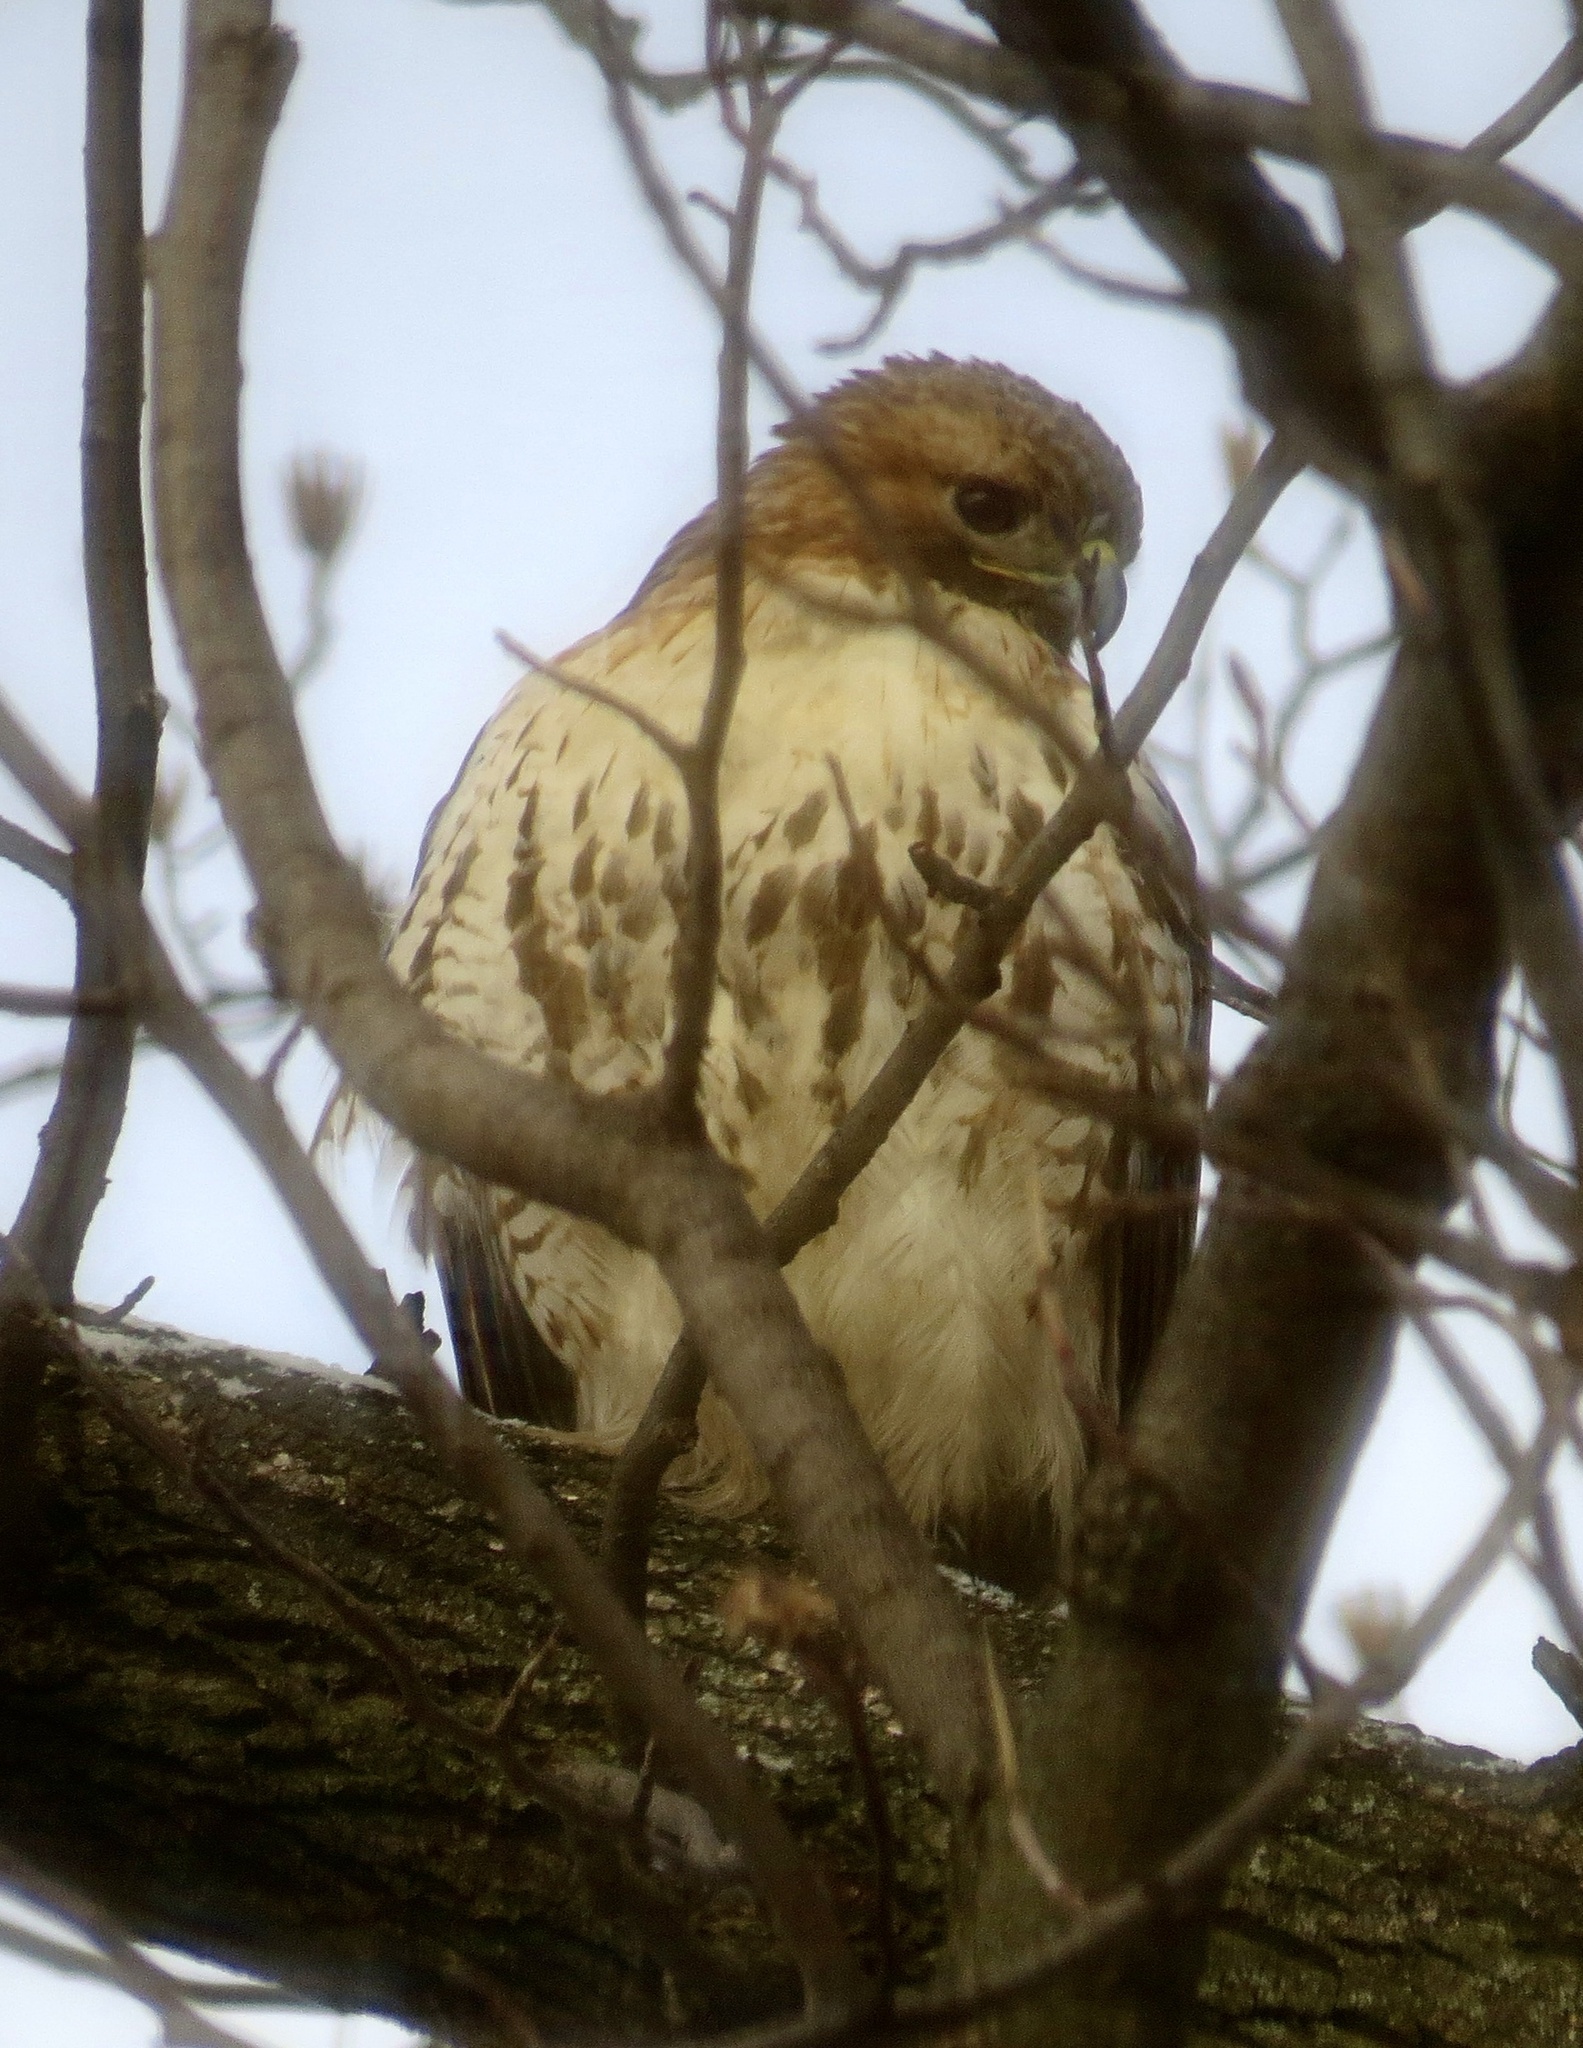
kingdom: Animalia
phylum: Chordata
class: Aves
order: Accipitriformes
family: Accipitridae
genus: Buteo
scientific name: Buteo jamaicensis
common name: Red-tailed hawk
